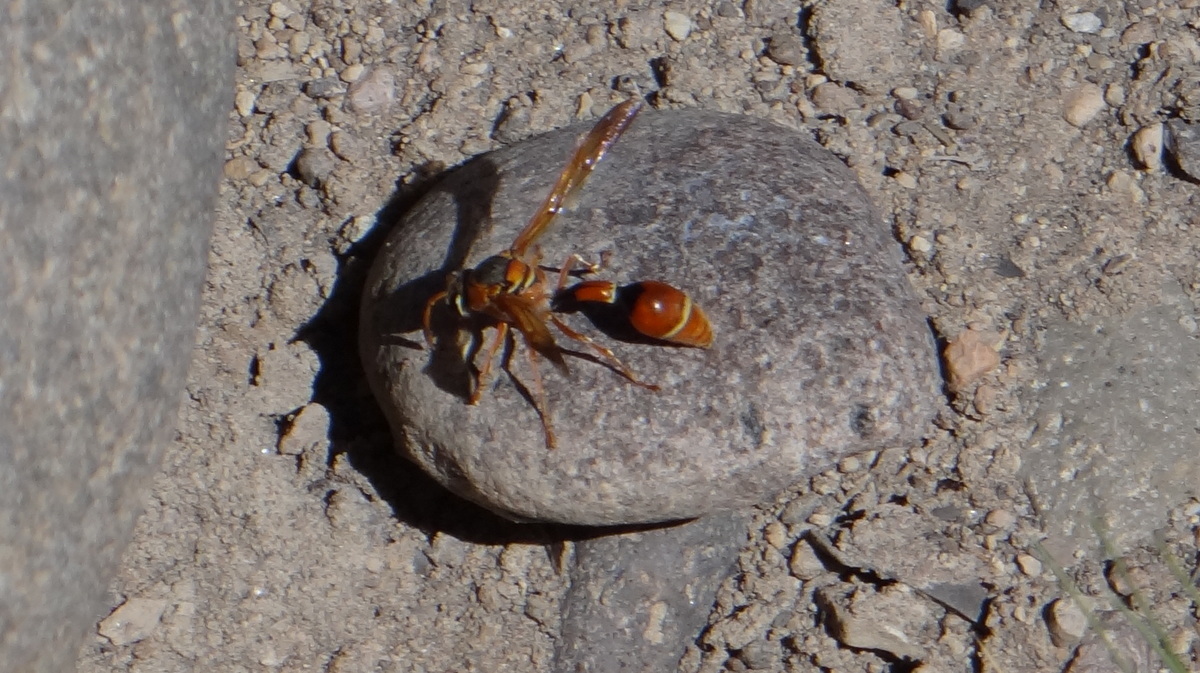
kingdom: Animalia
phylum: Arthropoda
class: Insecta
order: Hymenoptera
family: Eumenidae
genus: Zeta
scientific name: Zeta mendozanus
